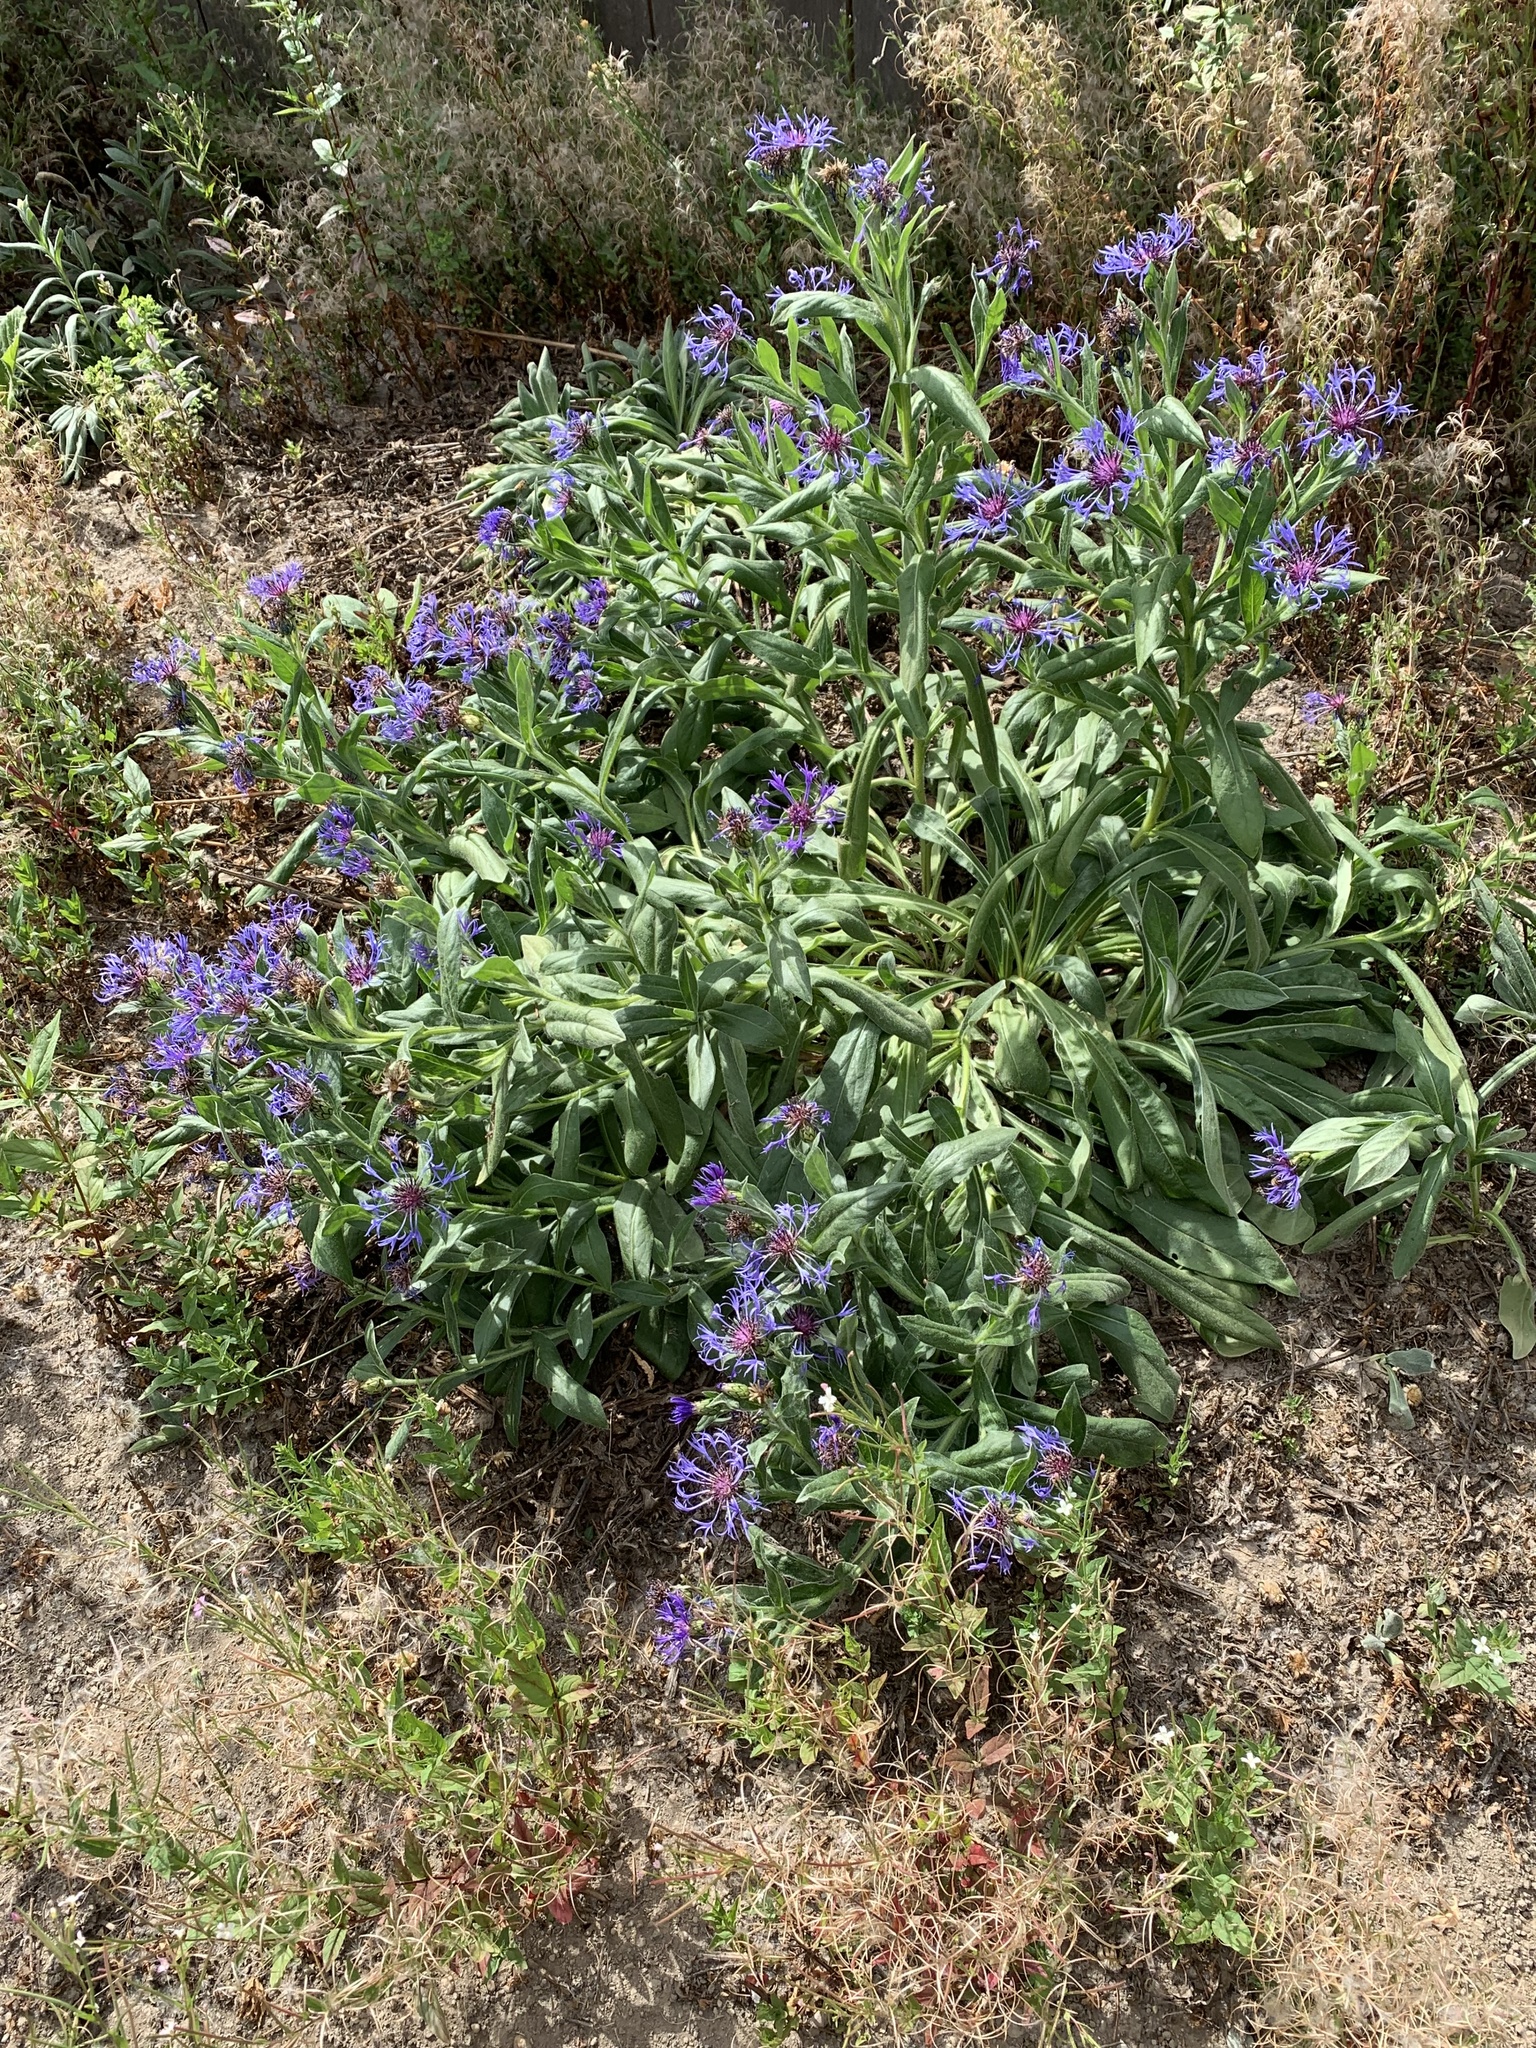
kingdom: Plantae
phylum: Tracheophyta
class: Magnoliopsida
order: Asterales
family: Asteraceae
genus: Centaurea
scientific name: Centaurea montana
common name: Perennial cornflower
